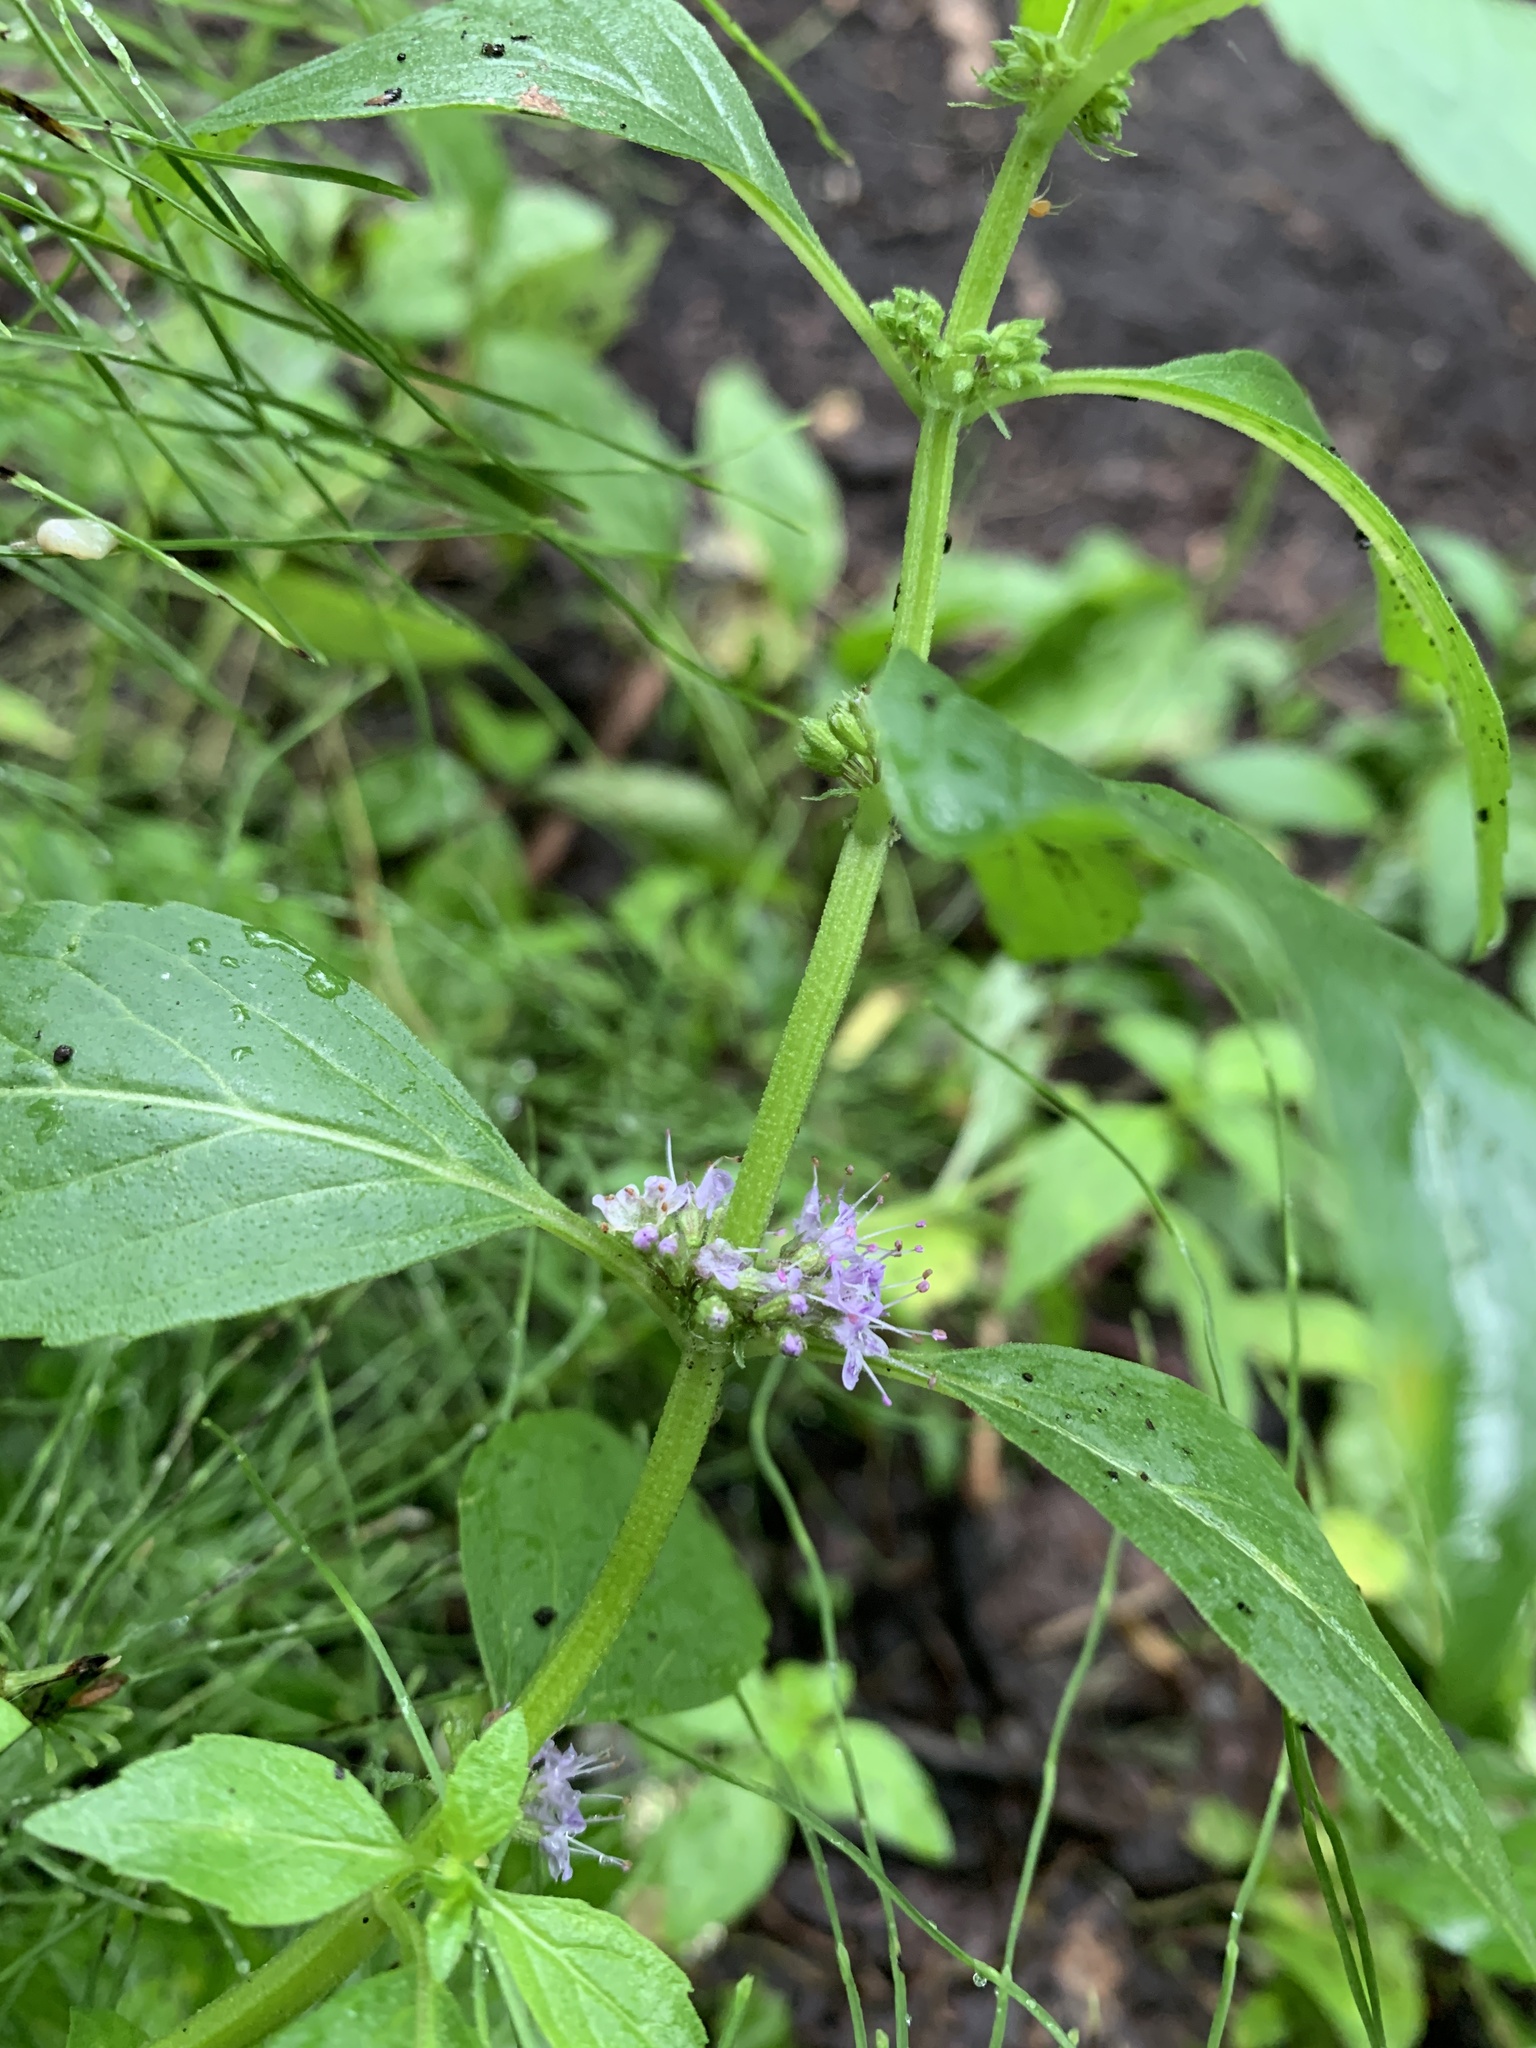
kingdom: Plantae
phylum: Tracheophyta
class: Magnoliopsida
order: Lamiales
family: Lamiaceae
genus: Mentha
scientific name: Mentha canadensis
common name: American corn mint
